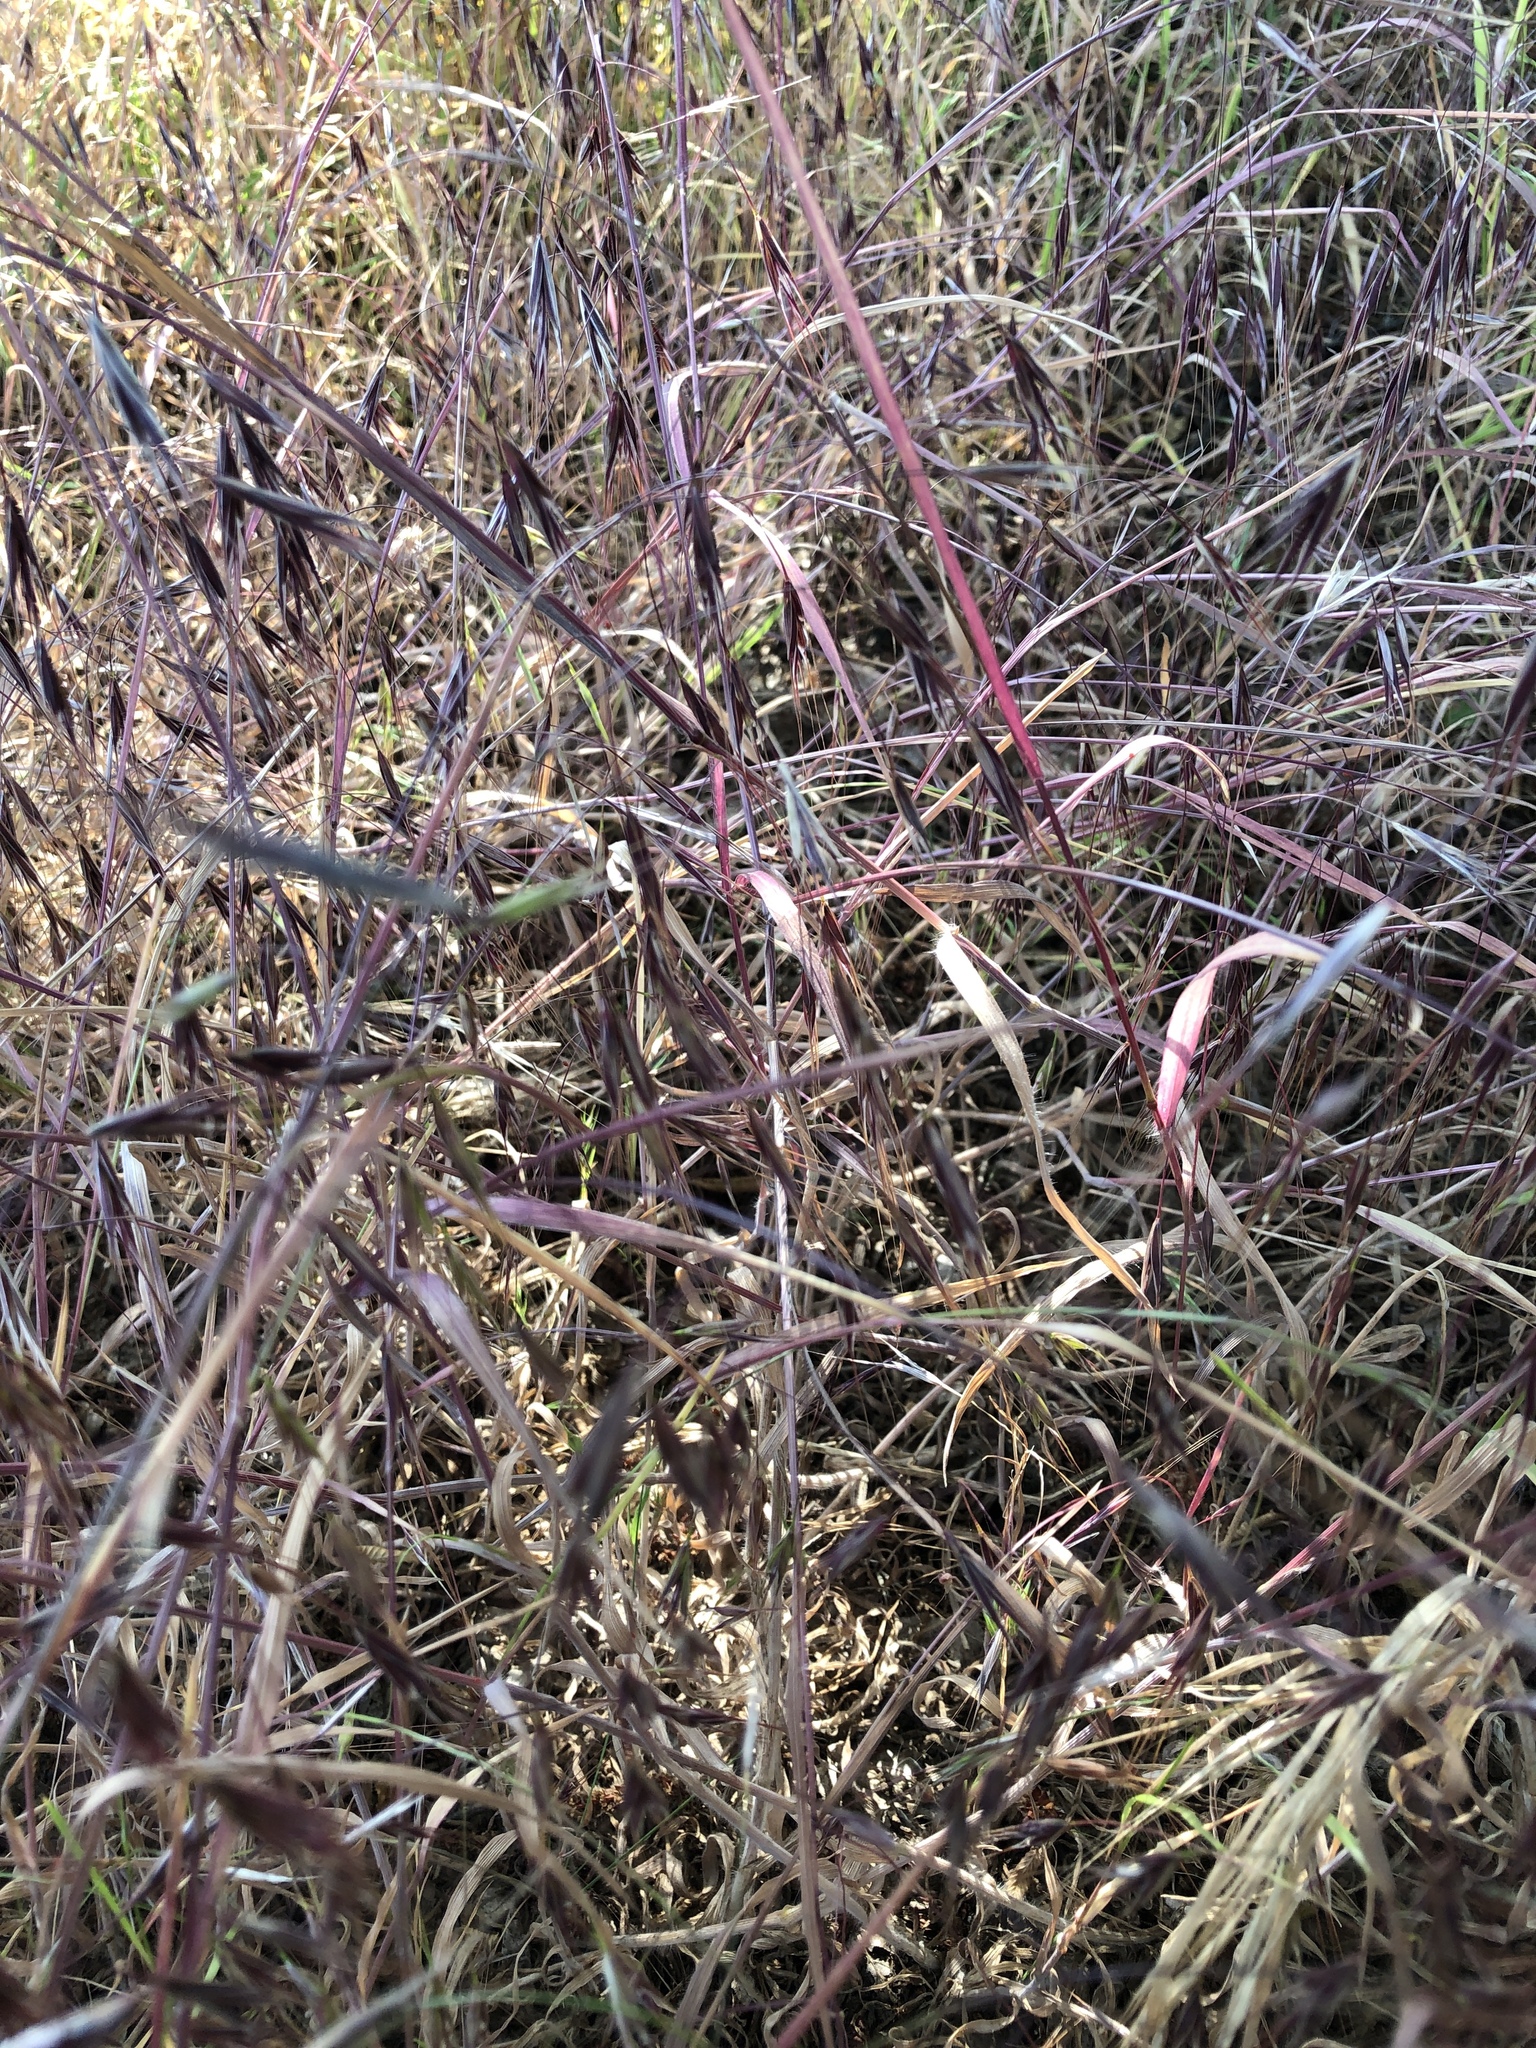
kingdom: Plantae
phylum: Tracheophyta
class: Liliopsida
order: Poales
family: Poaceae
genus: Bromus
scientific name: Bromus tectorum
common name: Cheatgrass
